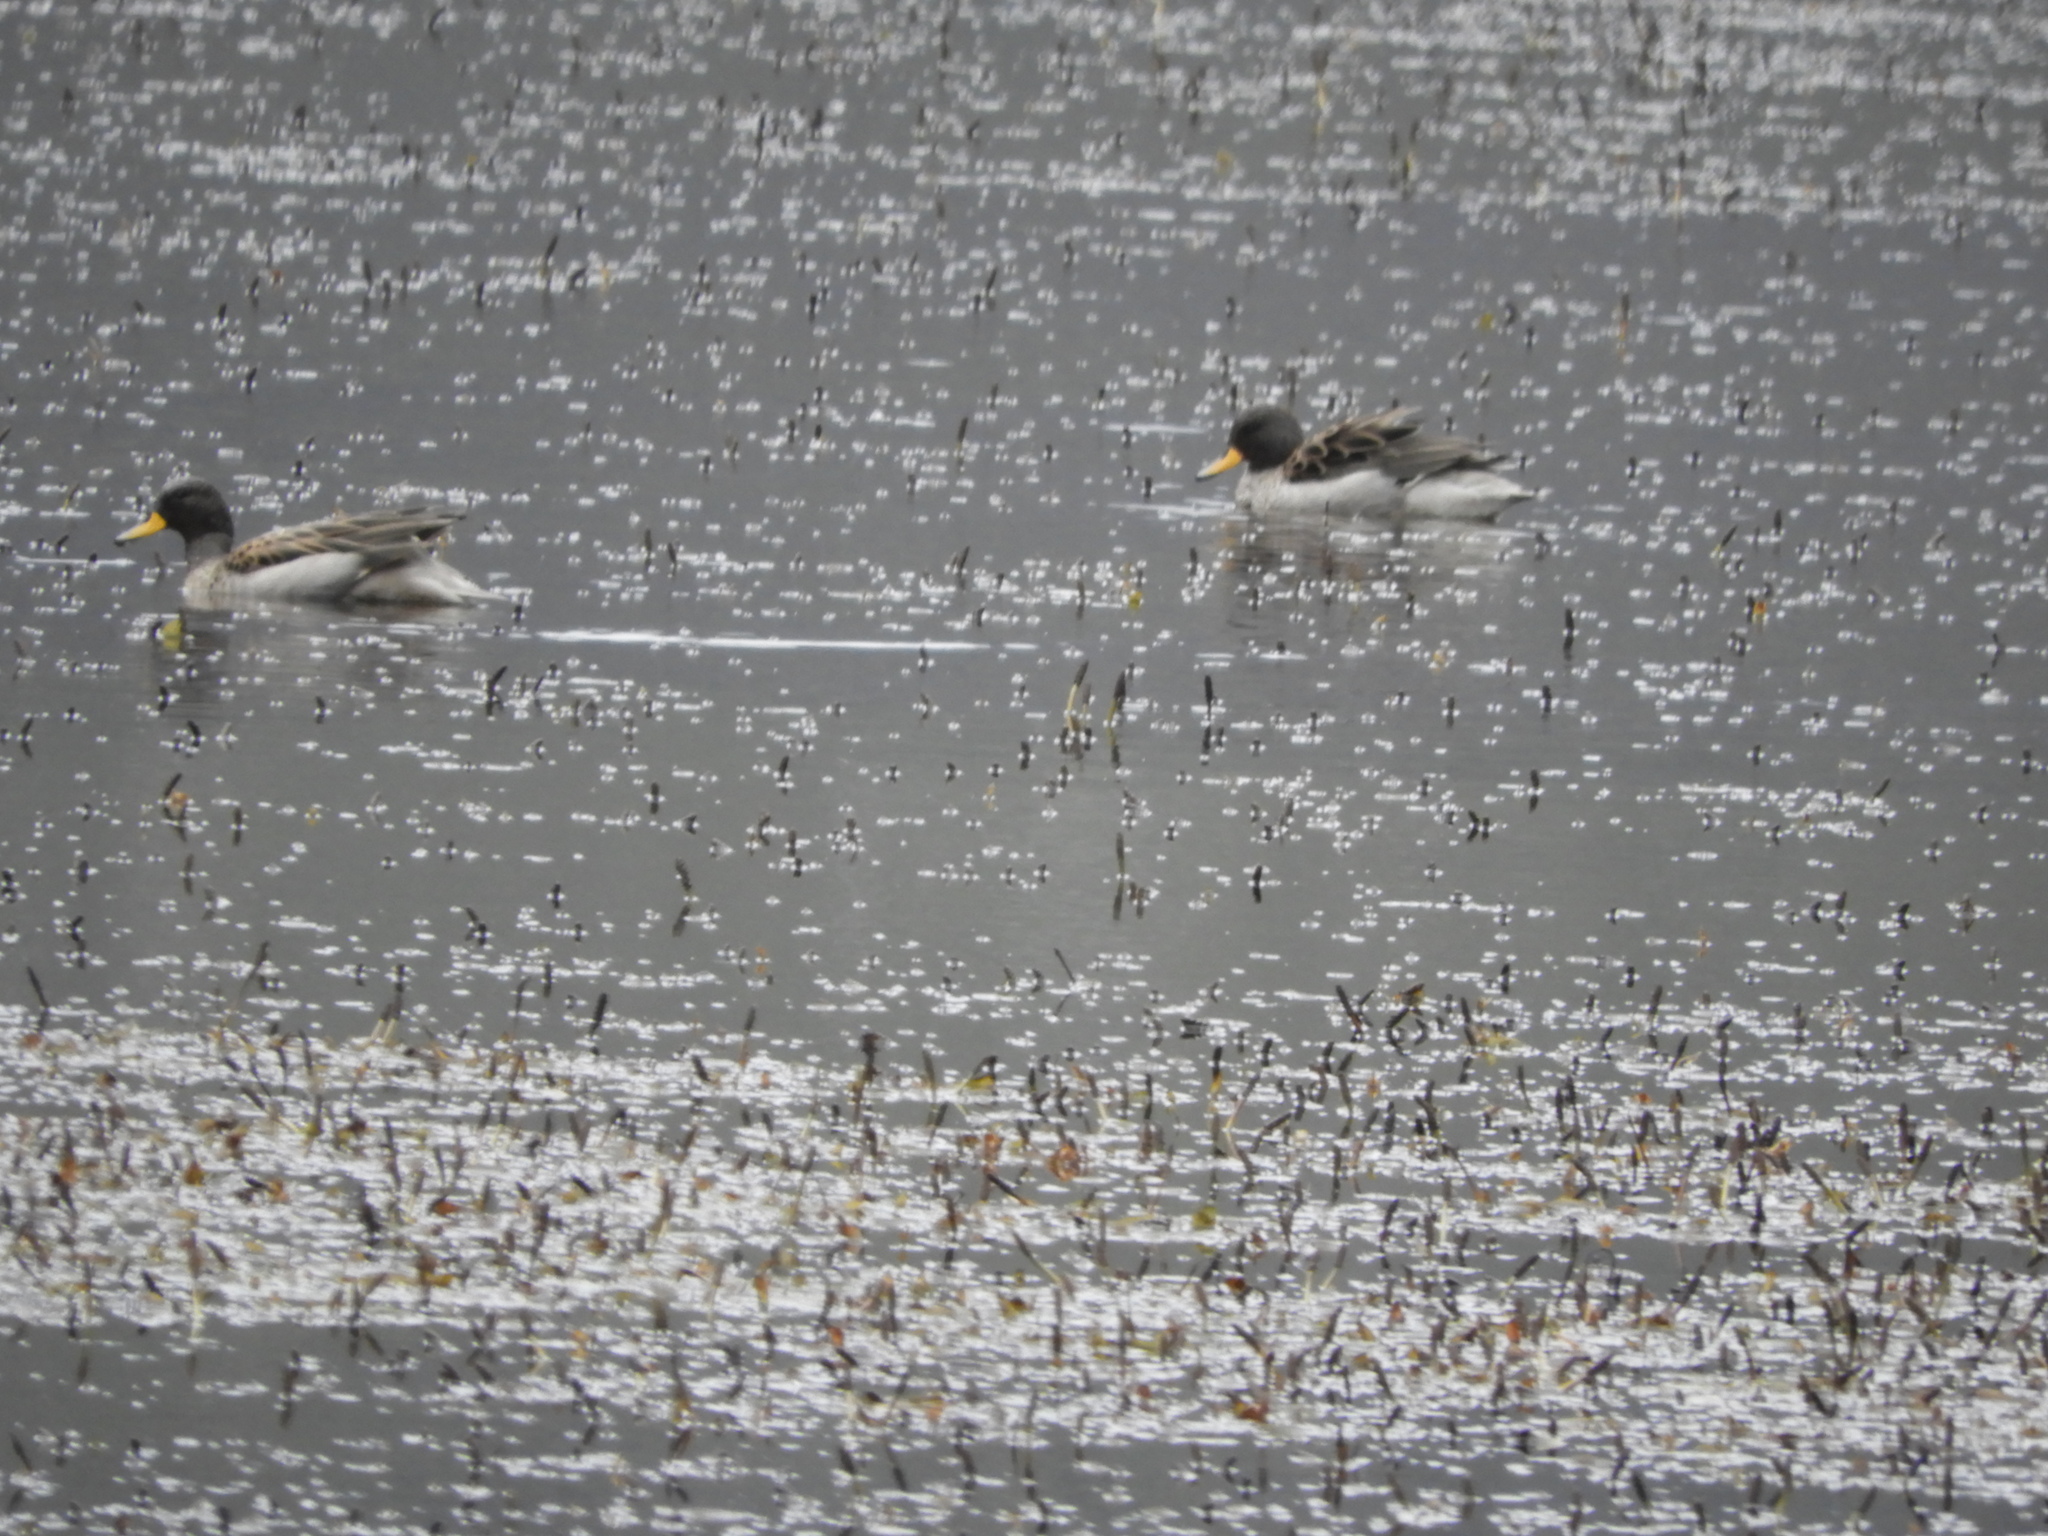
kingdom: Animalia
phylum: Chordata
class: Aves
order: Anseriformes
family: Anatidae
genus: Anas
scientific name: Anas flavirostris
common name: Yellow-billed teal
